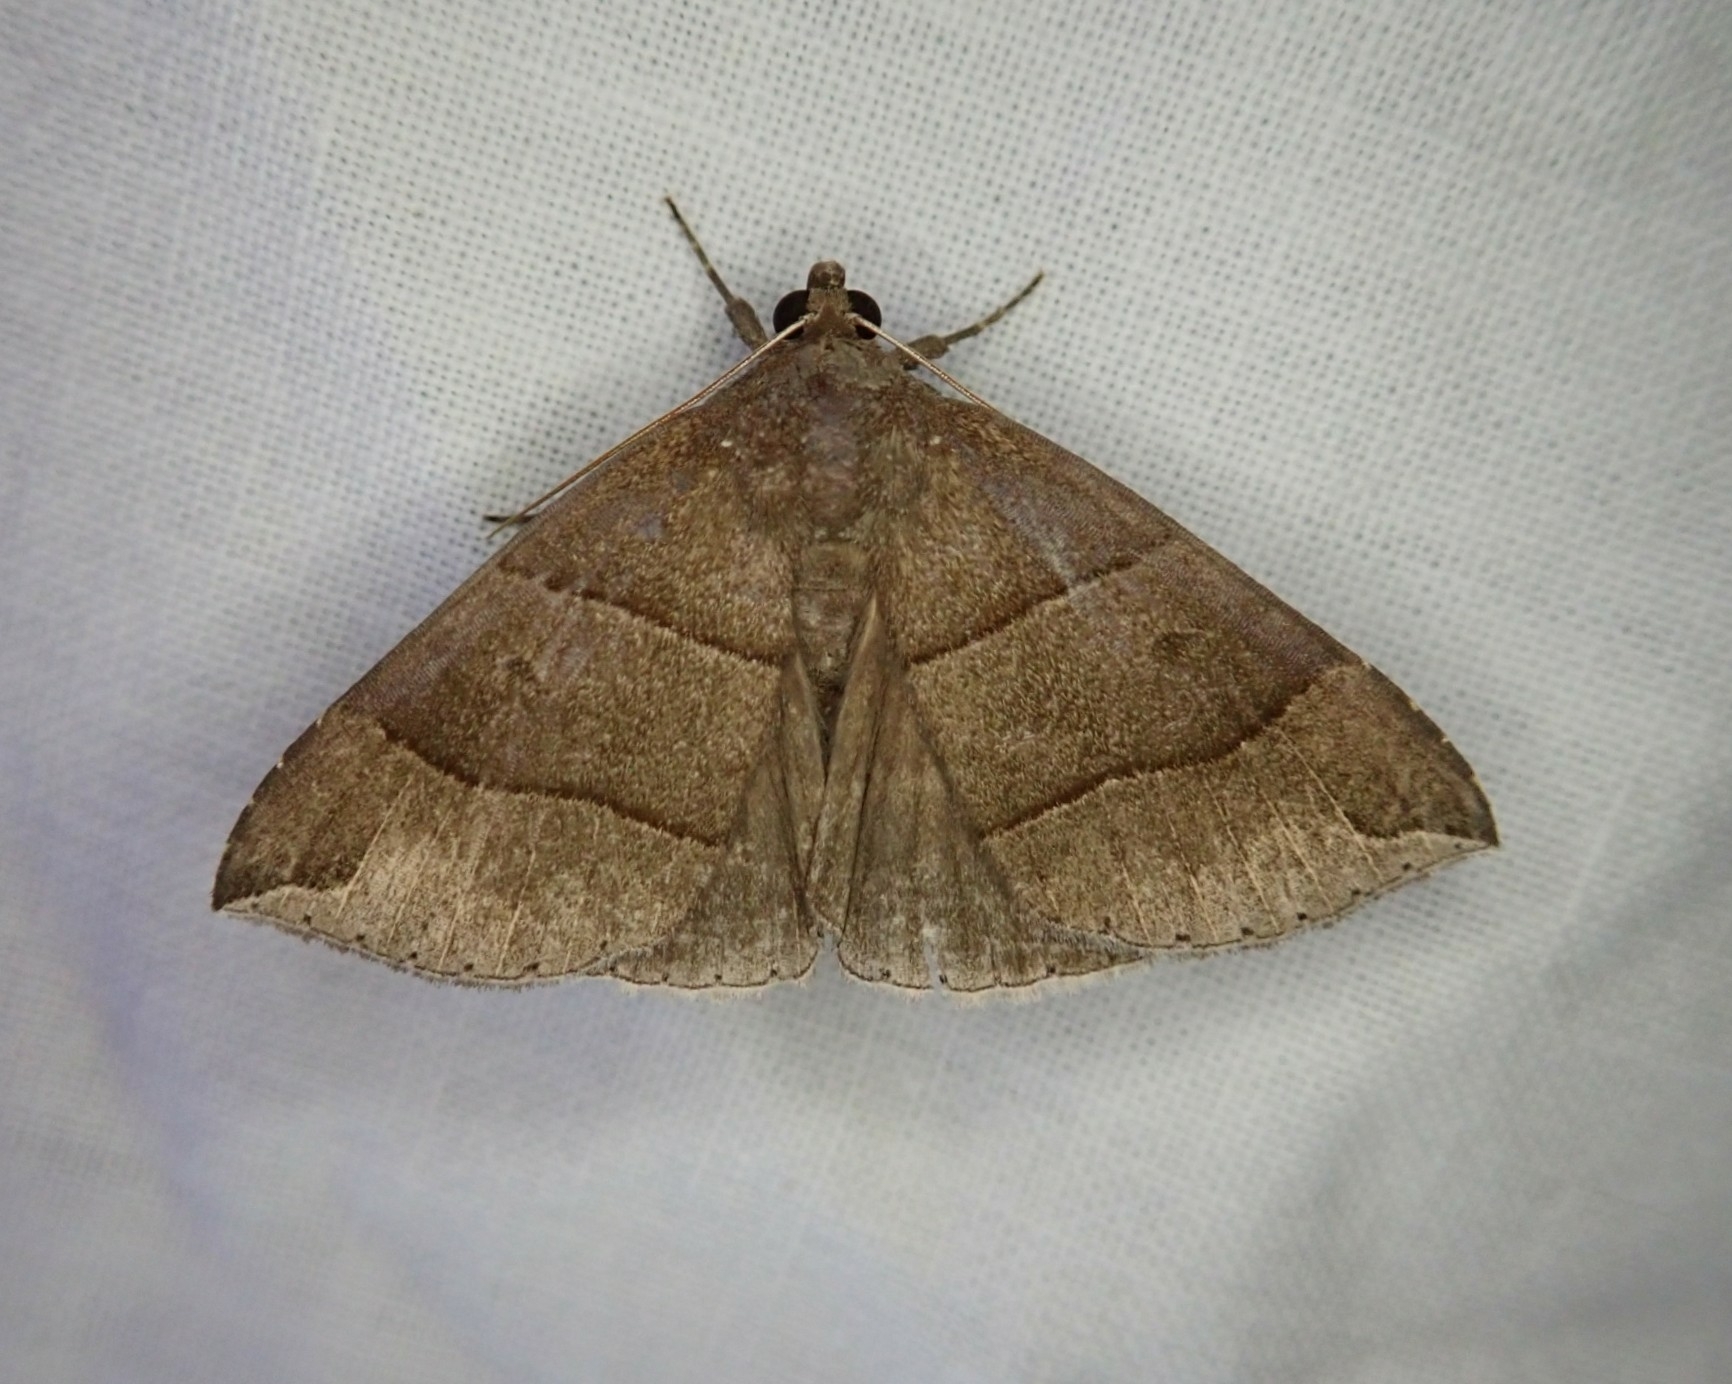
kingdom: Animalia
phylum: Arthropoda
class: Insecta
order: Lepidoptera
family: Erebidae
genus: Parallelia
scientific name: Parallelia bistriaris
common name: Maple looper moth
